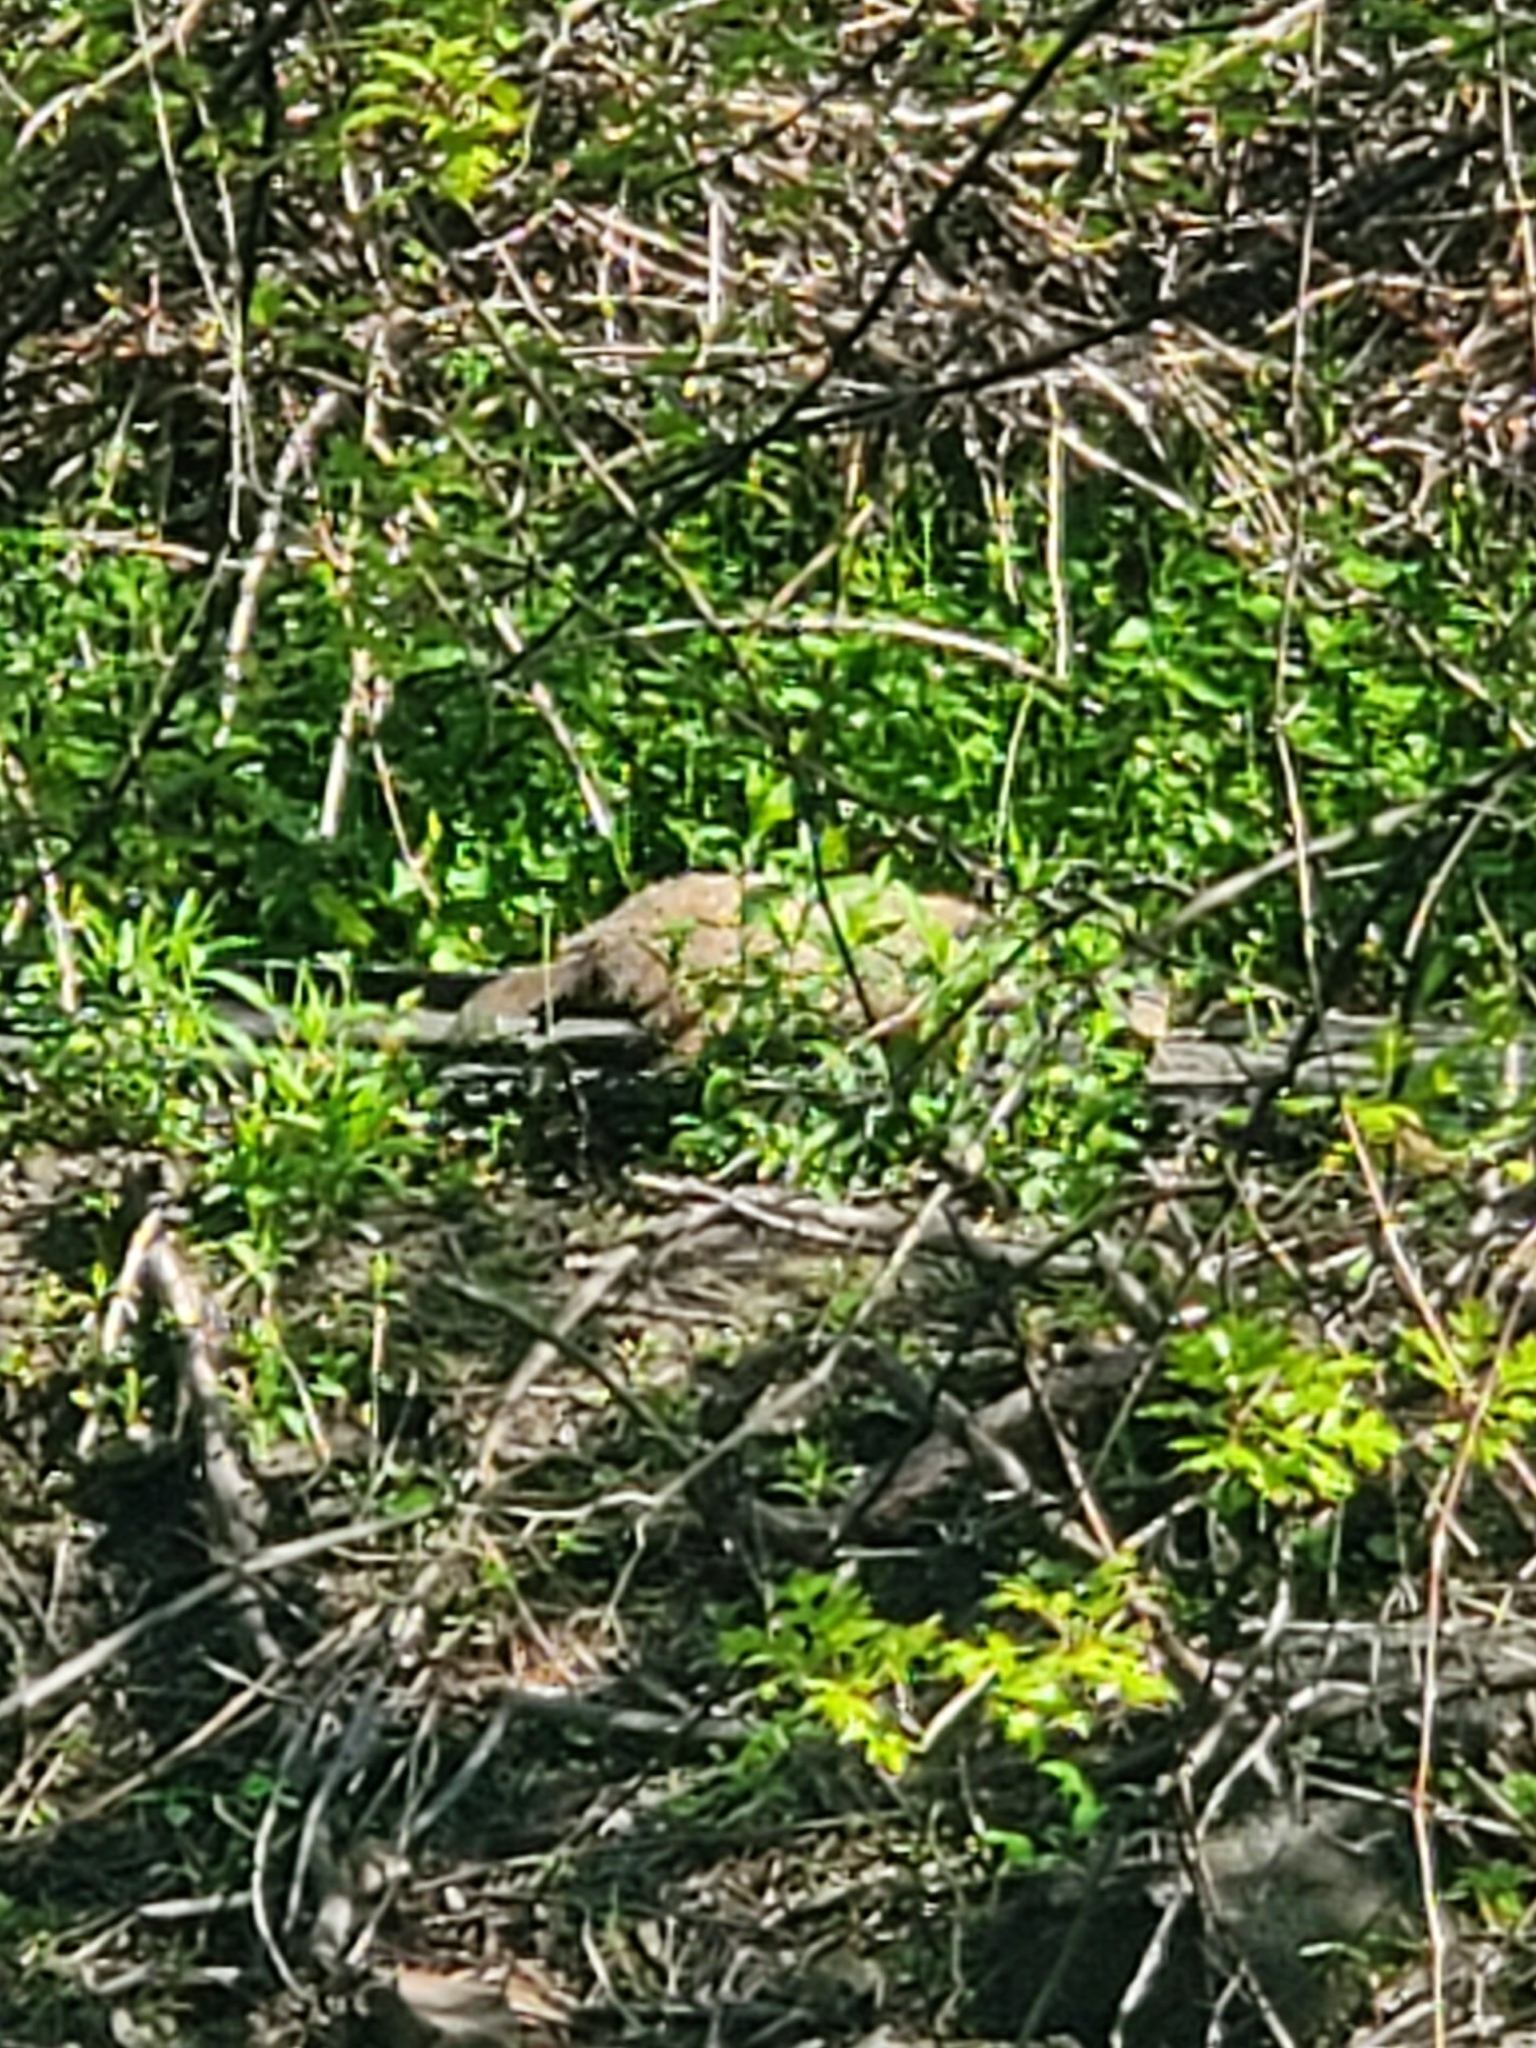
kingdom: Animalia
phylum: Chordata
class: Mammalia
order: Rodentia
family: Sciuridae
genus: Marmota
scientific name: Marmota monax
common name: Groundhog
